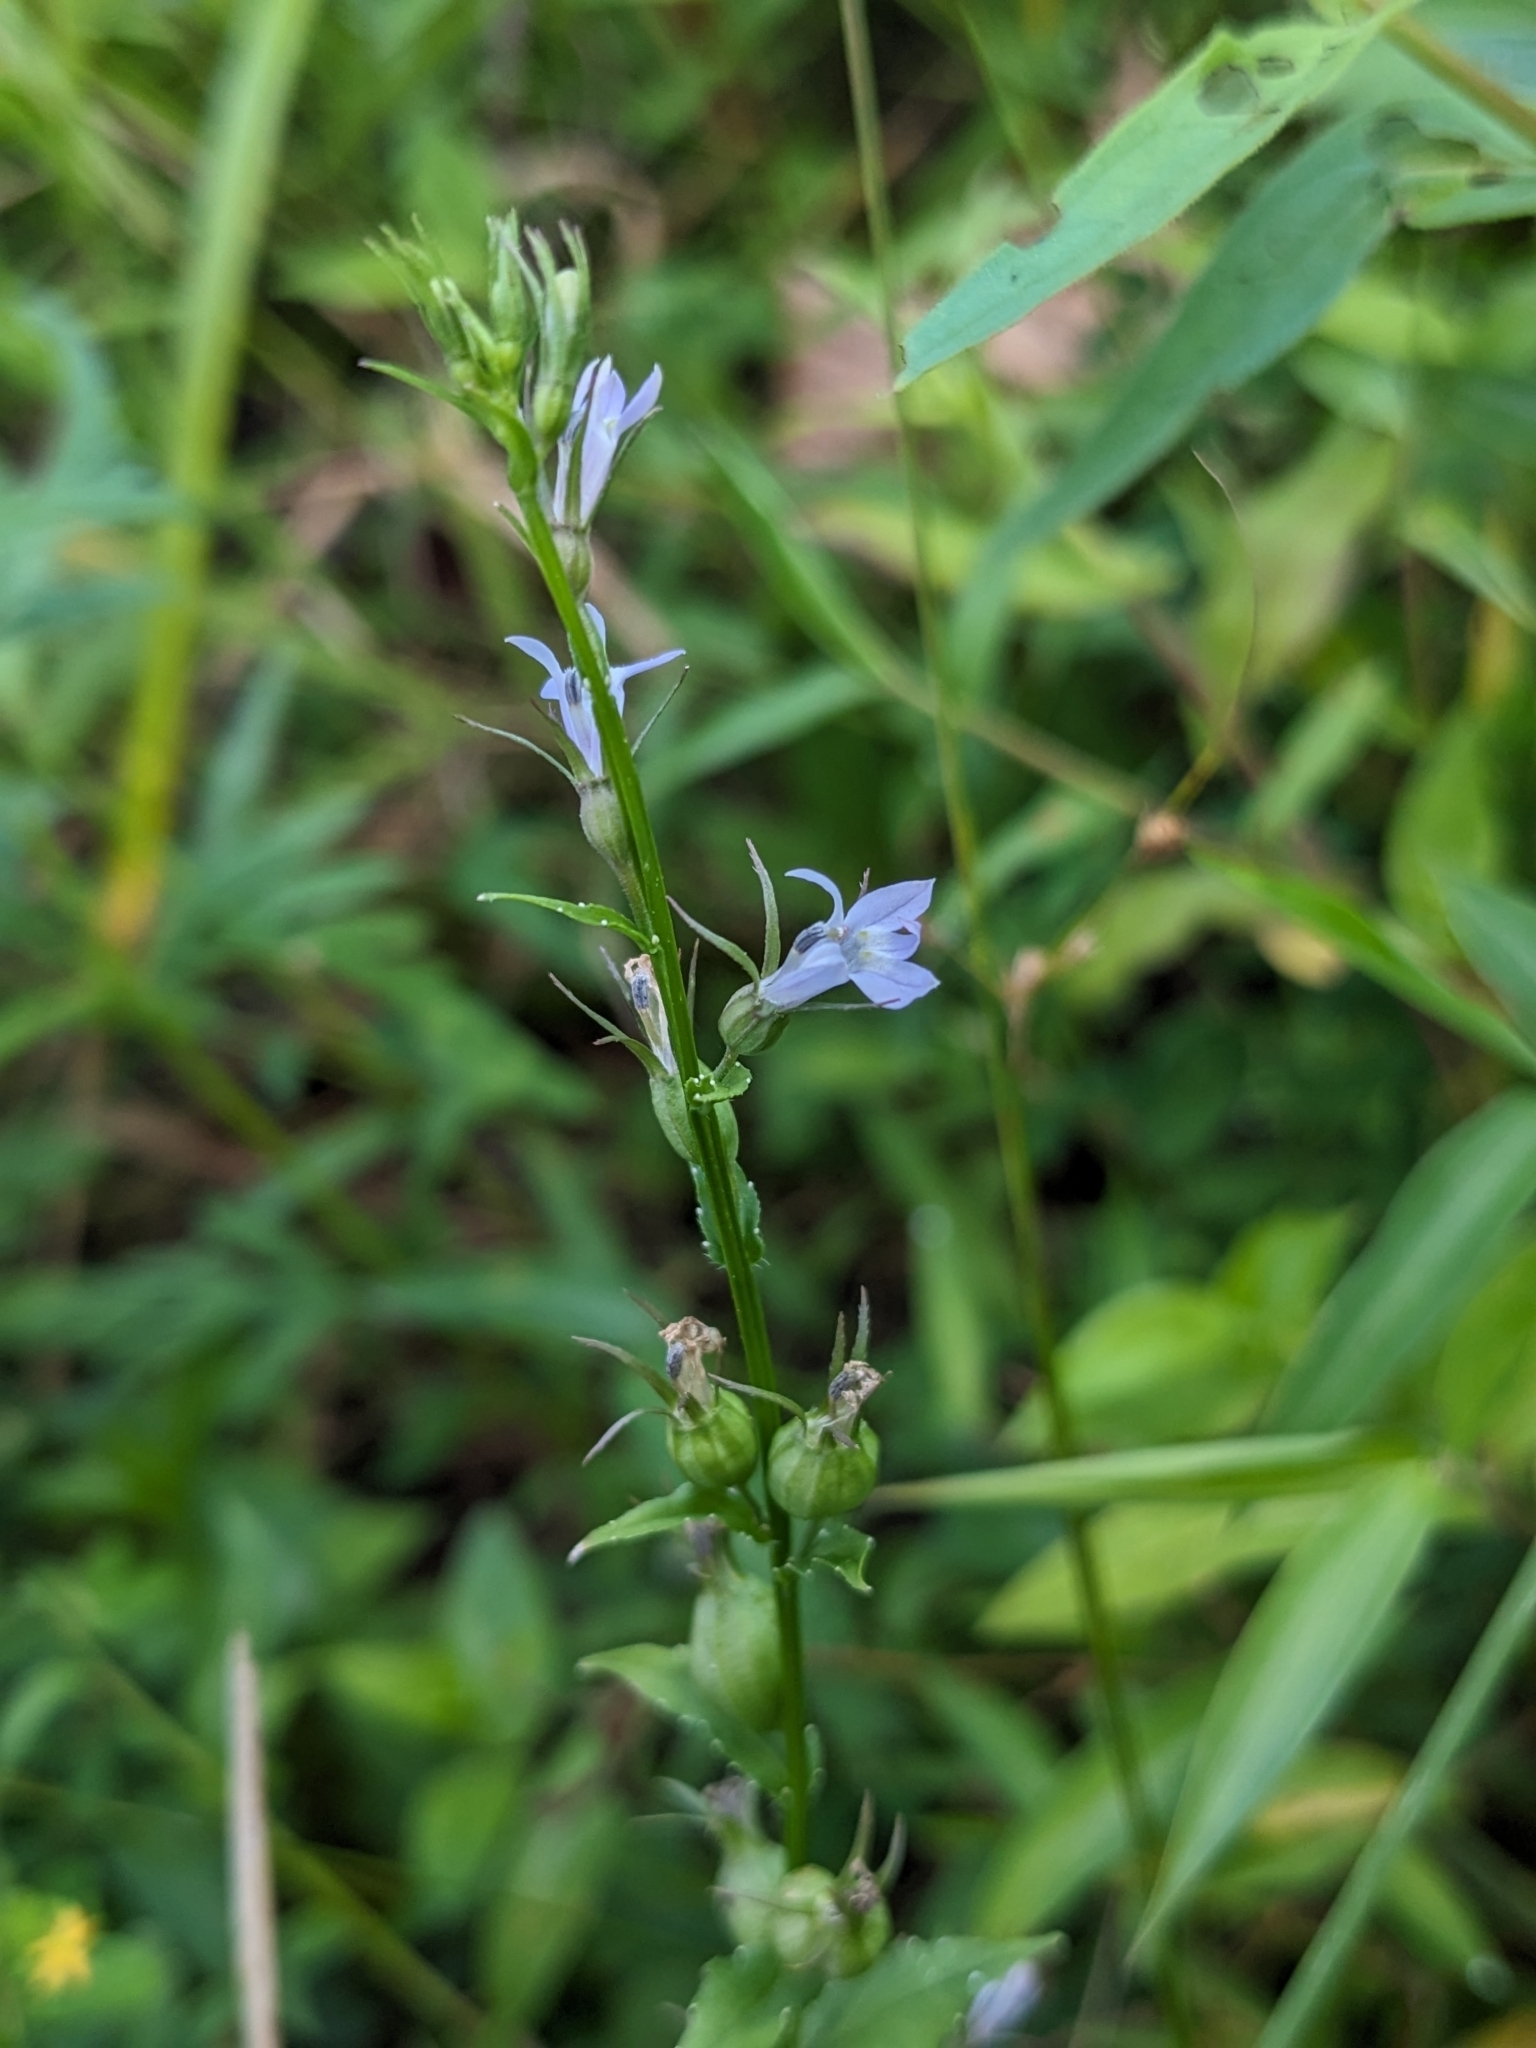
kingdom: Plantae
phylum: Tracheophyta
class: Magnoliopsida
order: Asterales
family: Campanulaceae
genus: Lobelia
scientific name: Lobelia inflata
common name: Indian tobacco
